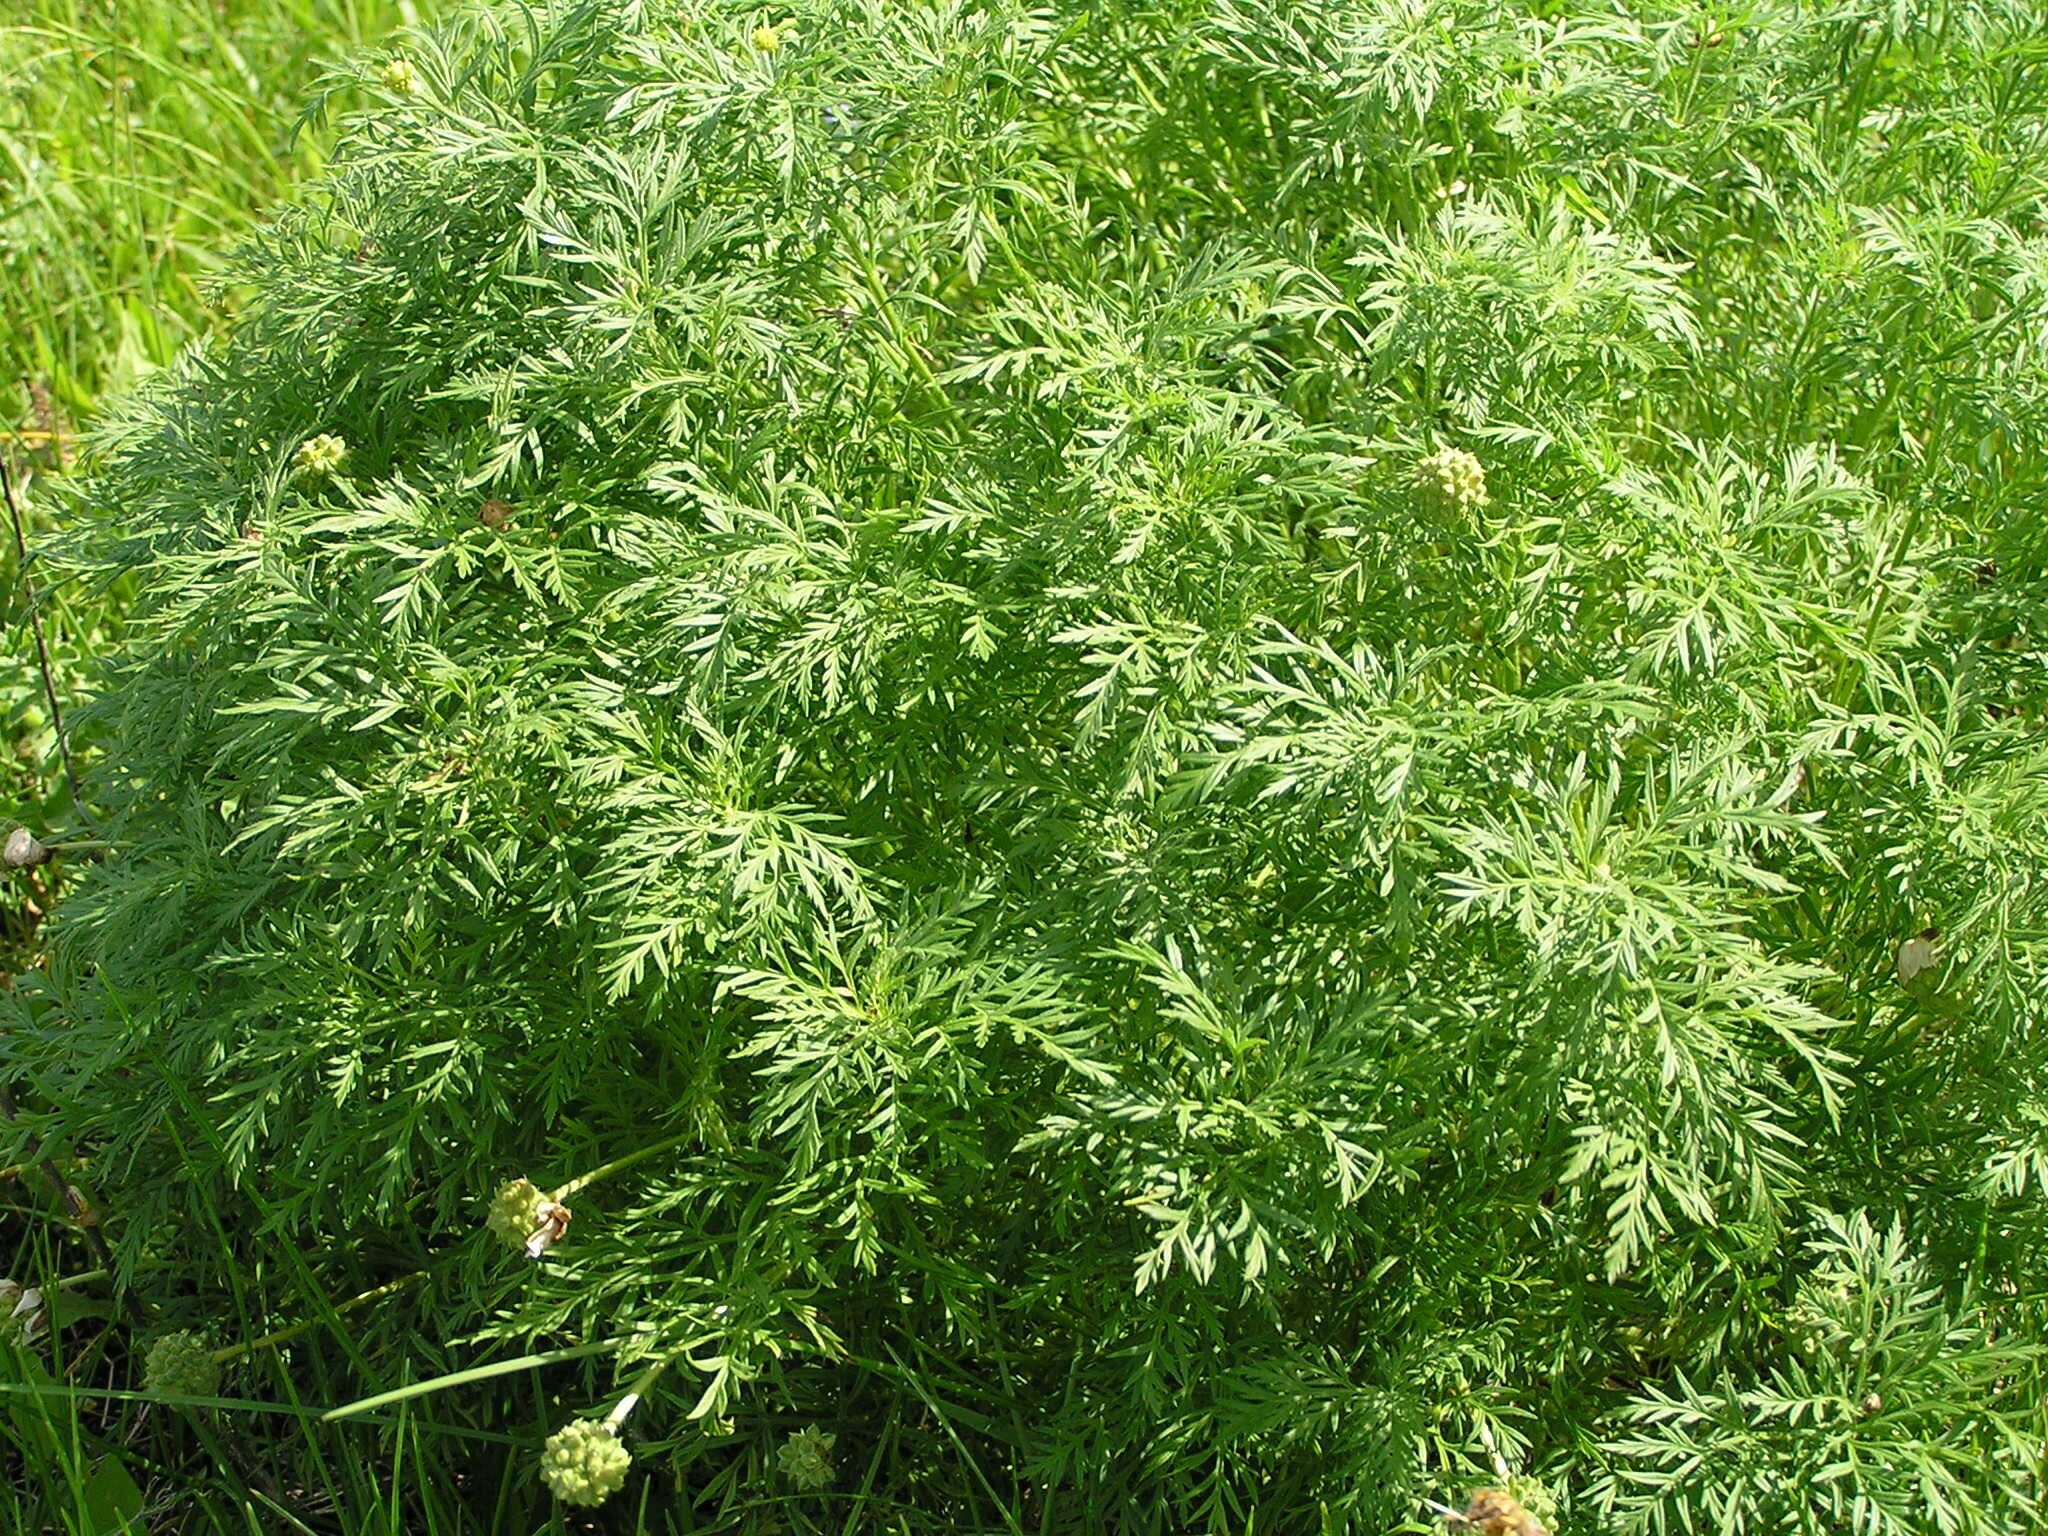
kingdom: Plantae
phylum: Tracheophyta
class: Magnoliopsida
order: Ranunculales
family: Ranunculaceae
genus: Adonis
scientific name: Adonis volgensis
